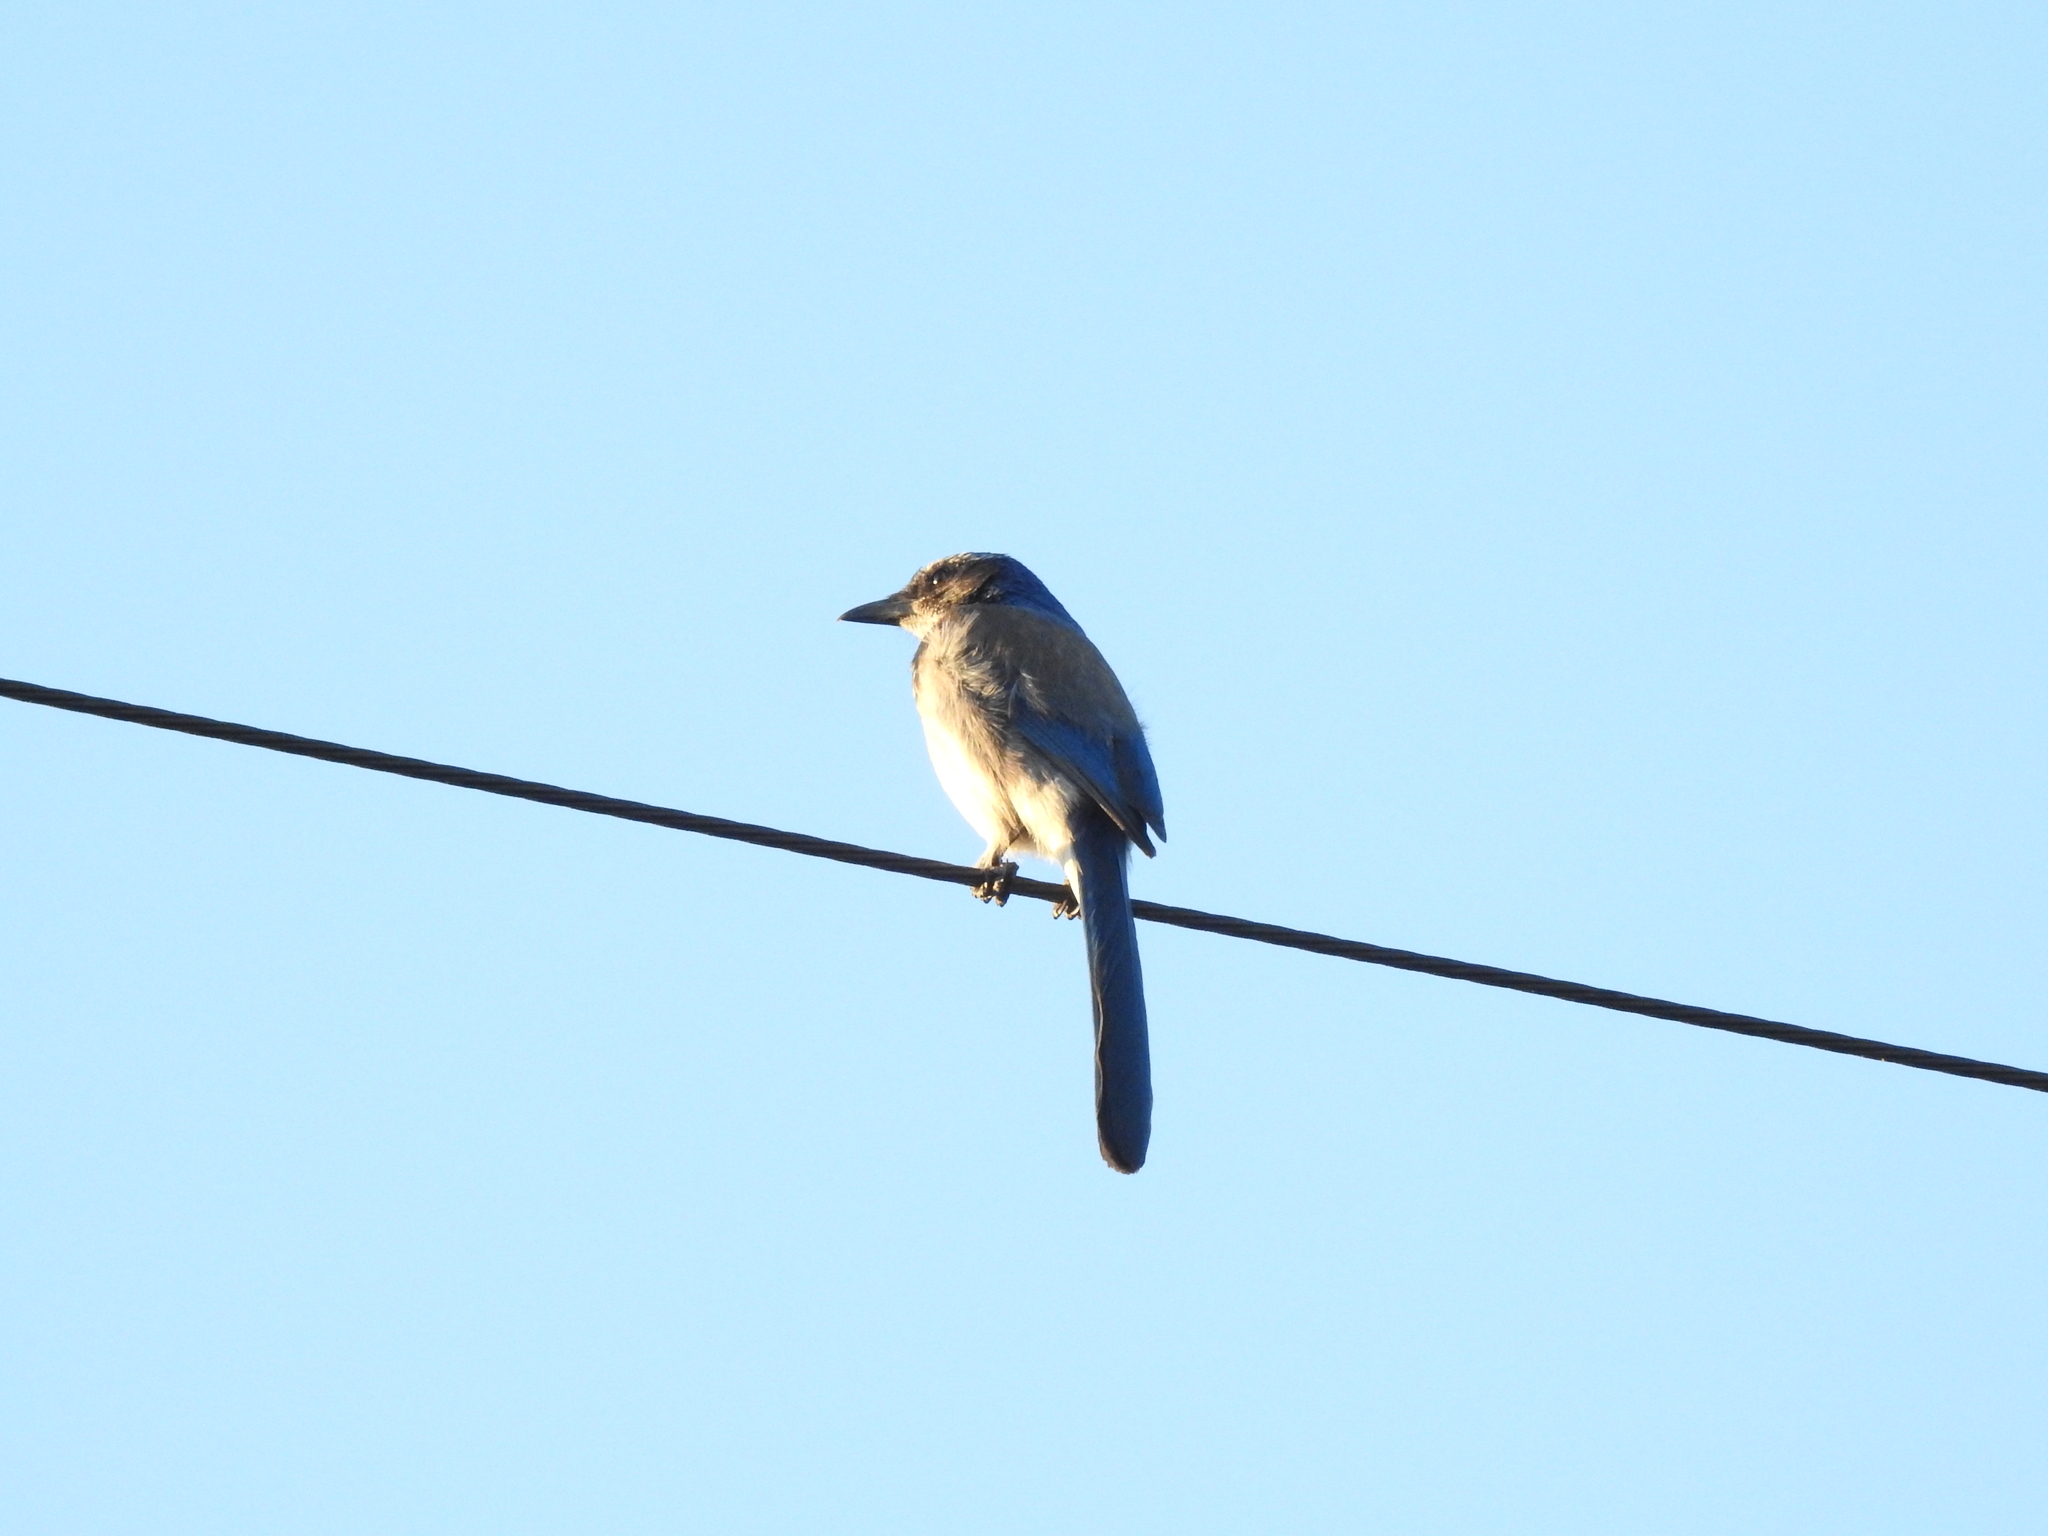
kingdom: Animalia
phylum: Chordata
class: Aves
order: Passeriformes
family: Corvidae
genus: Aphelocoma
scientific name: Aphelocoma californica
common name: California scrub-jay
